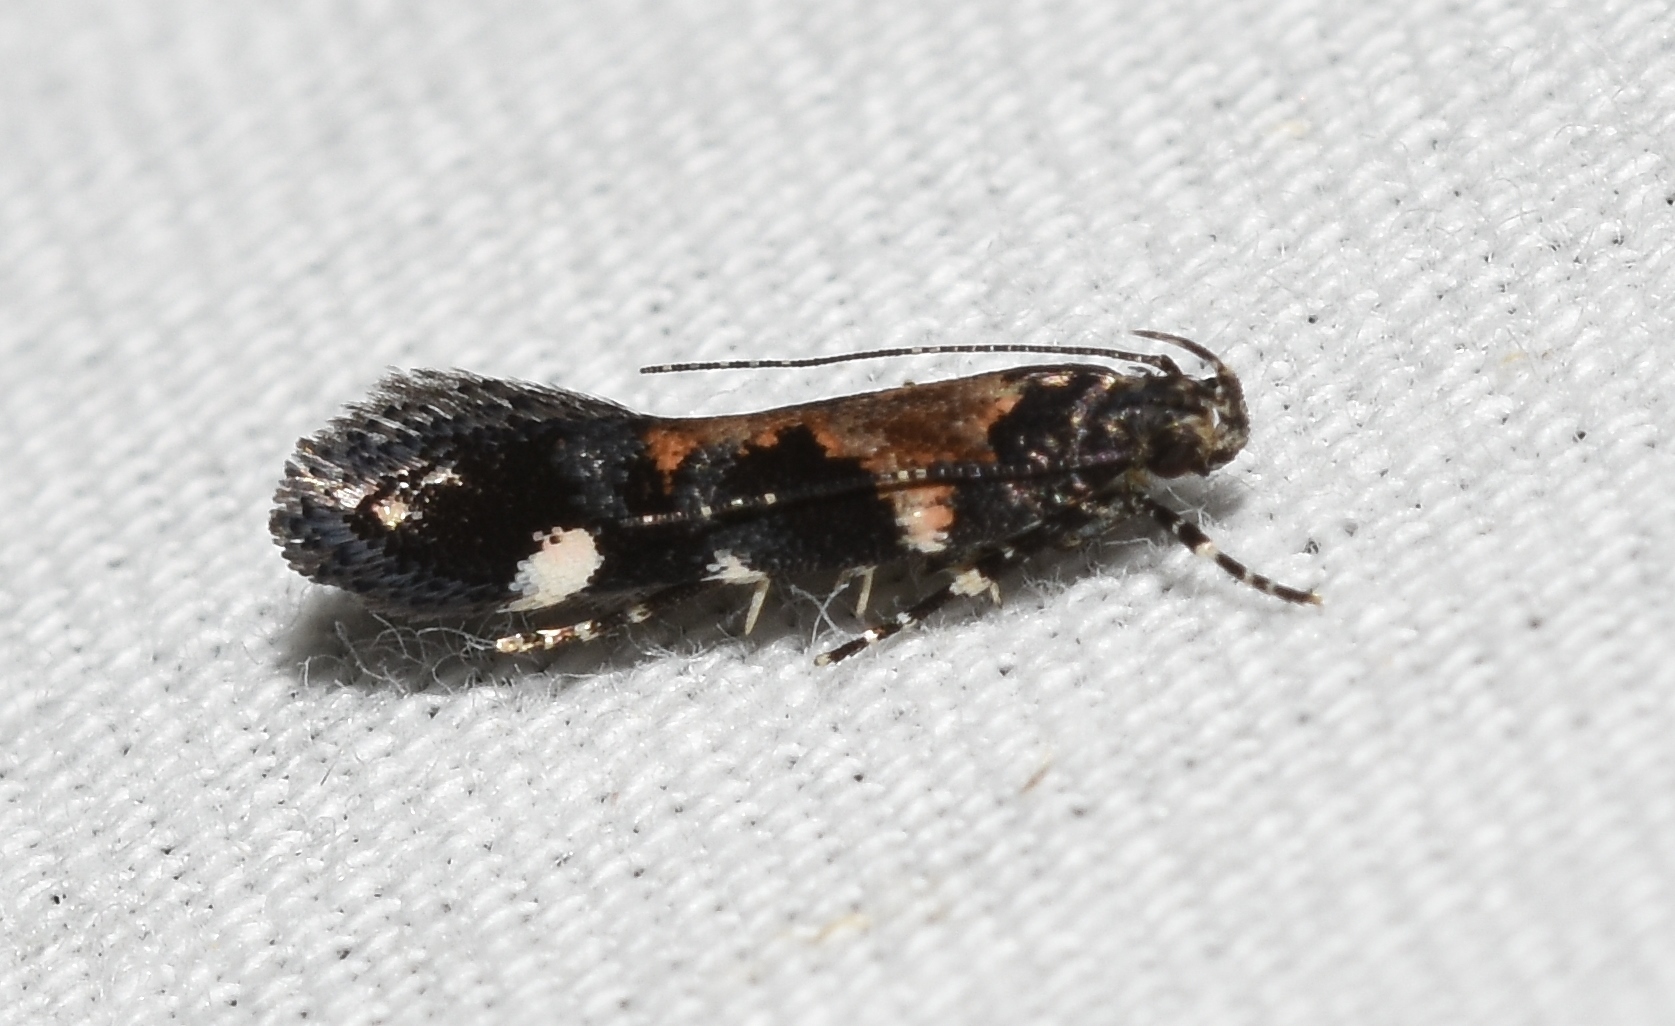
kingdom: Animalia
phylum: Arthropoda
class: Insecta
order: Lepidoptera
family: Gelechiidae
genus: Stegasta
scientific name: Stegasta bosqueella
